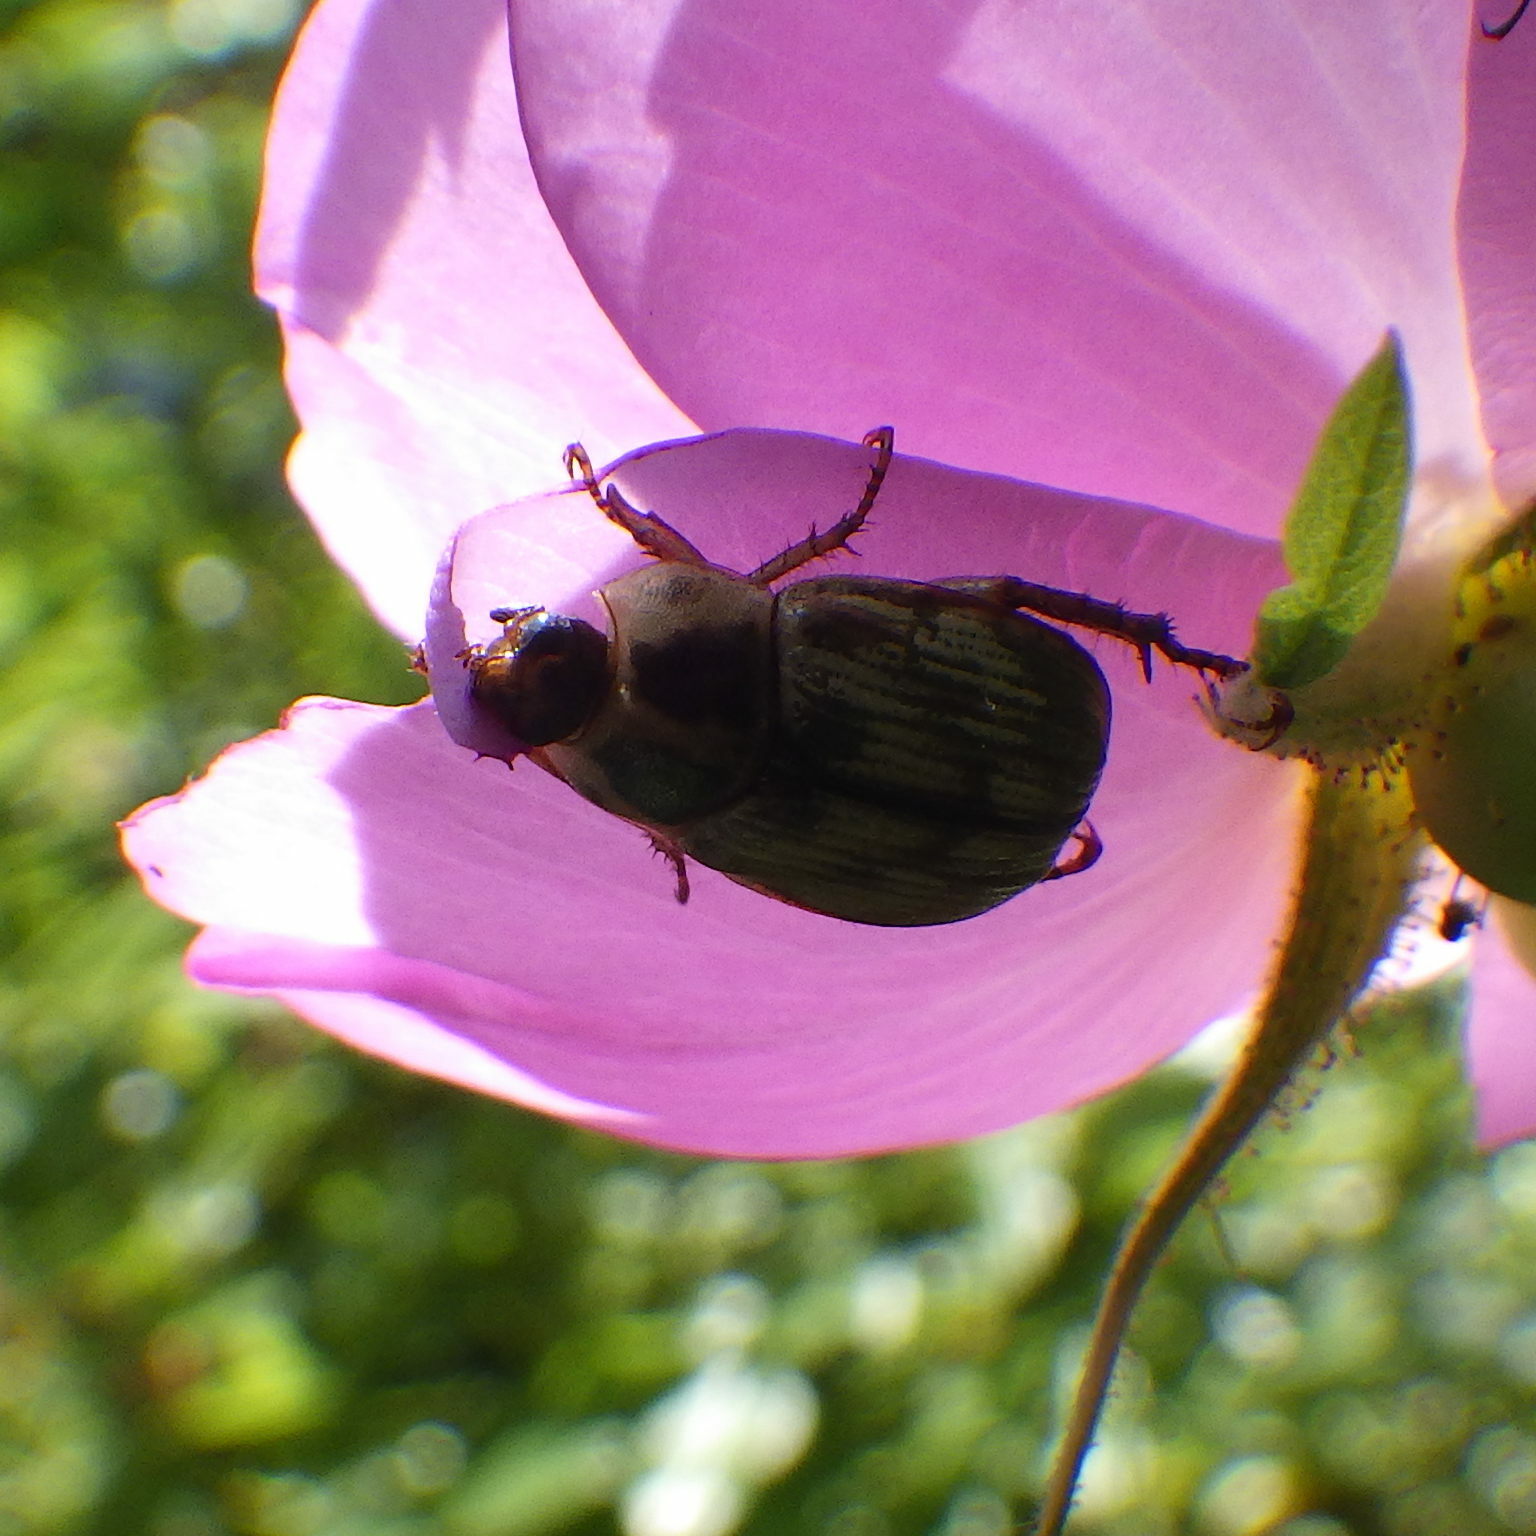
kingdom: Animalia
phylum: Arthropoda
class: Insecta
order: Coleoptera
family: Scarabaeidae
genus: Exomala
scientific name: Exomala orientalis
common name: Oriental beetle
